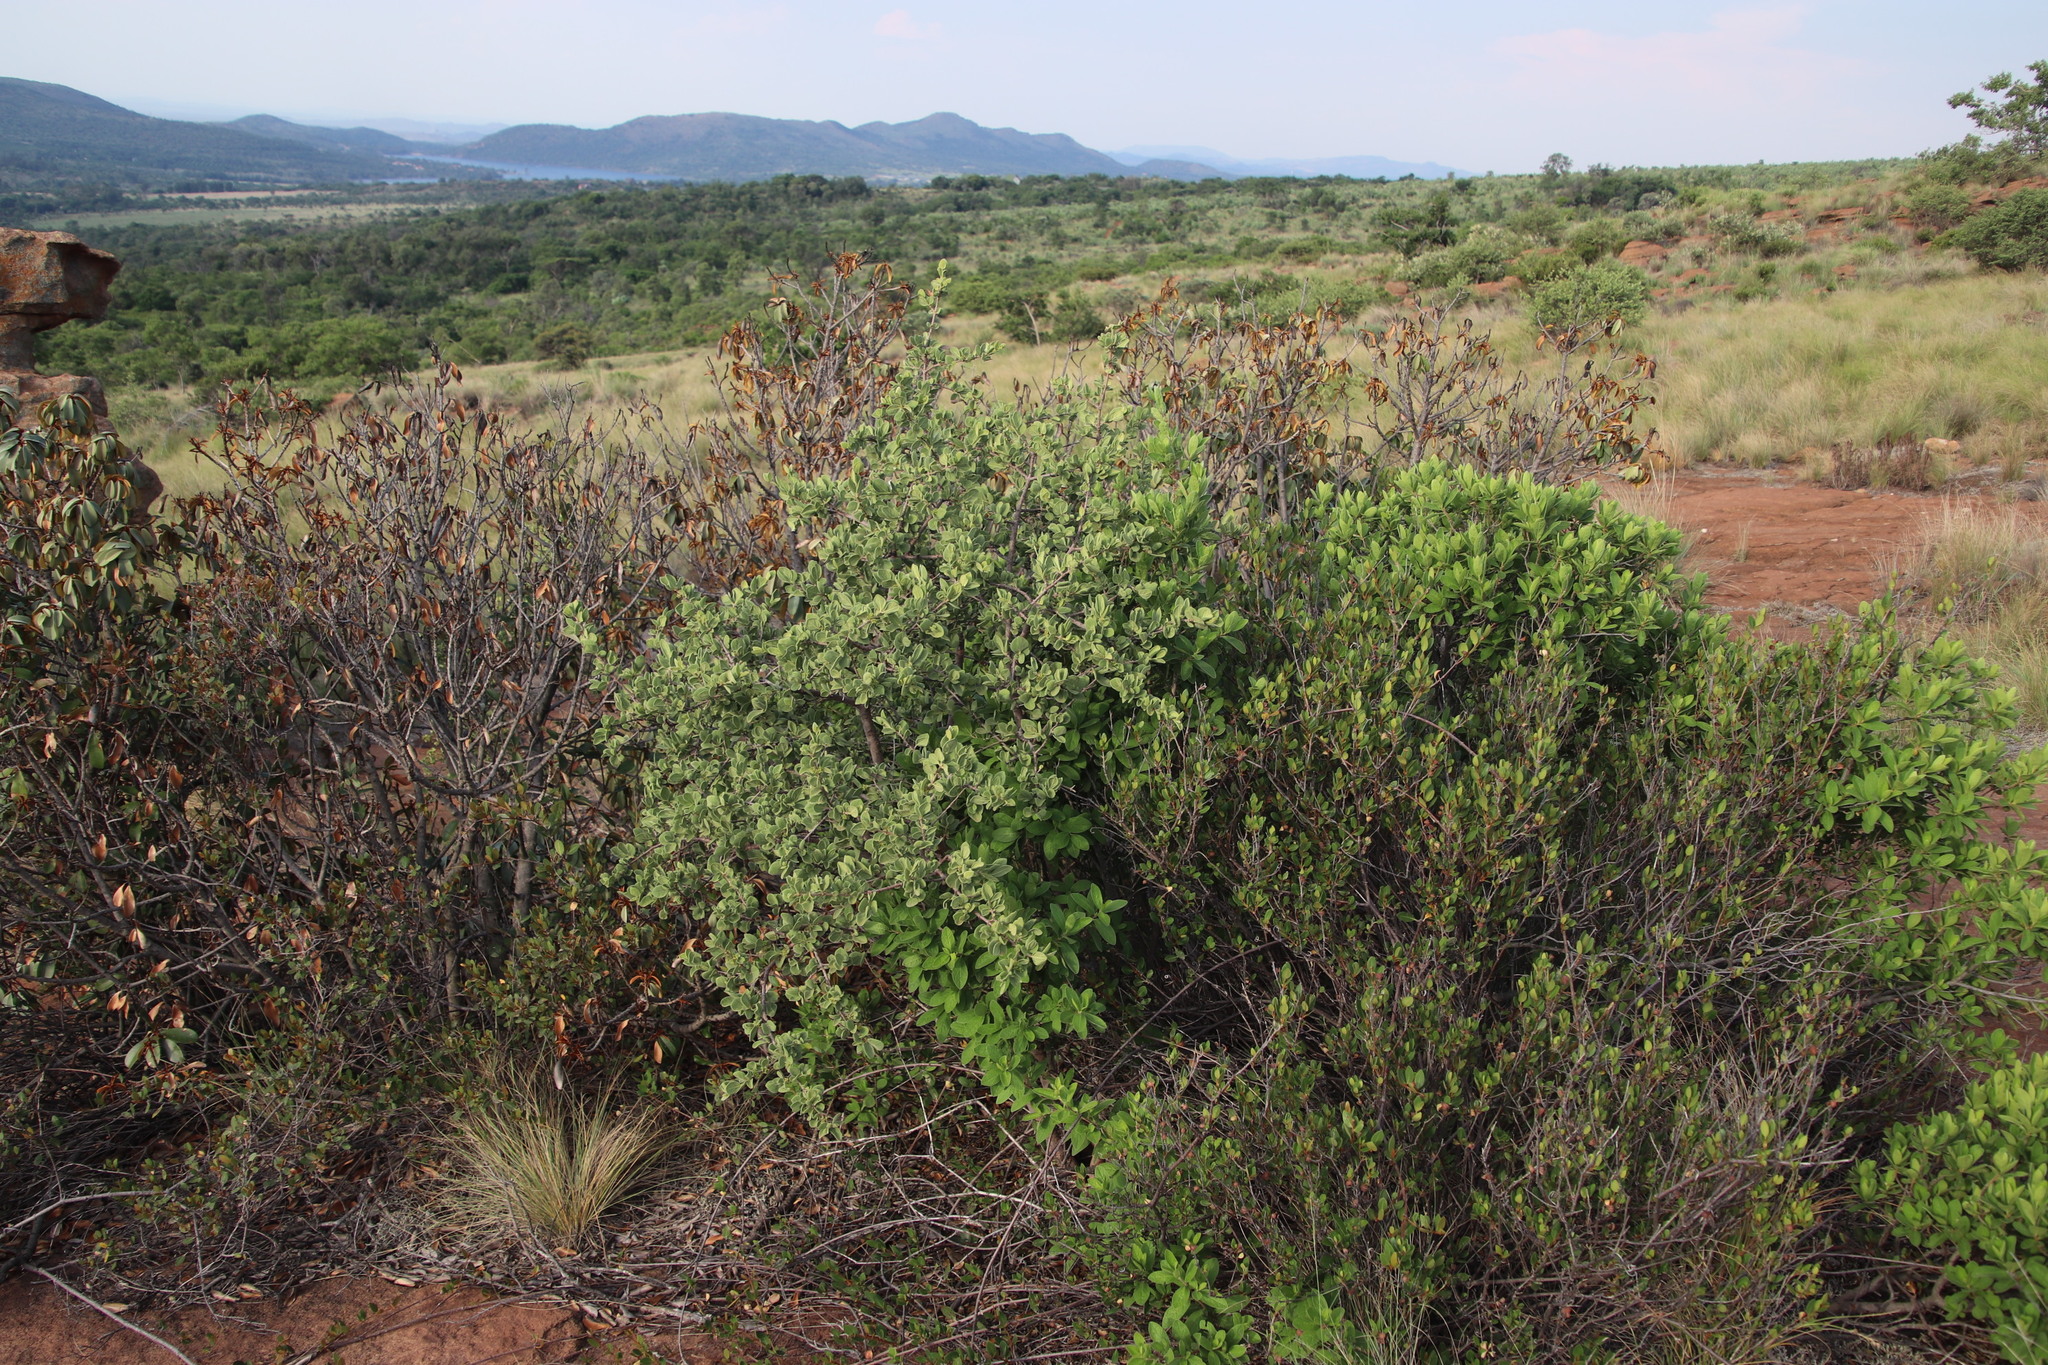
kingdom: Plantae
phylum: Tracheophyta
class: Magnoliopsida
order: Gentianales
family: Rubiaceae
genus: Vangueria
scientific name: Vangueria parvifolia
